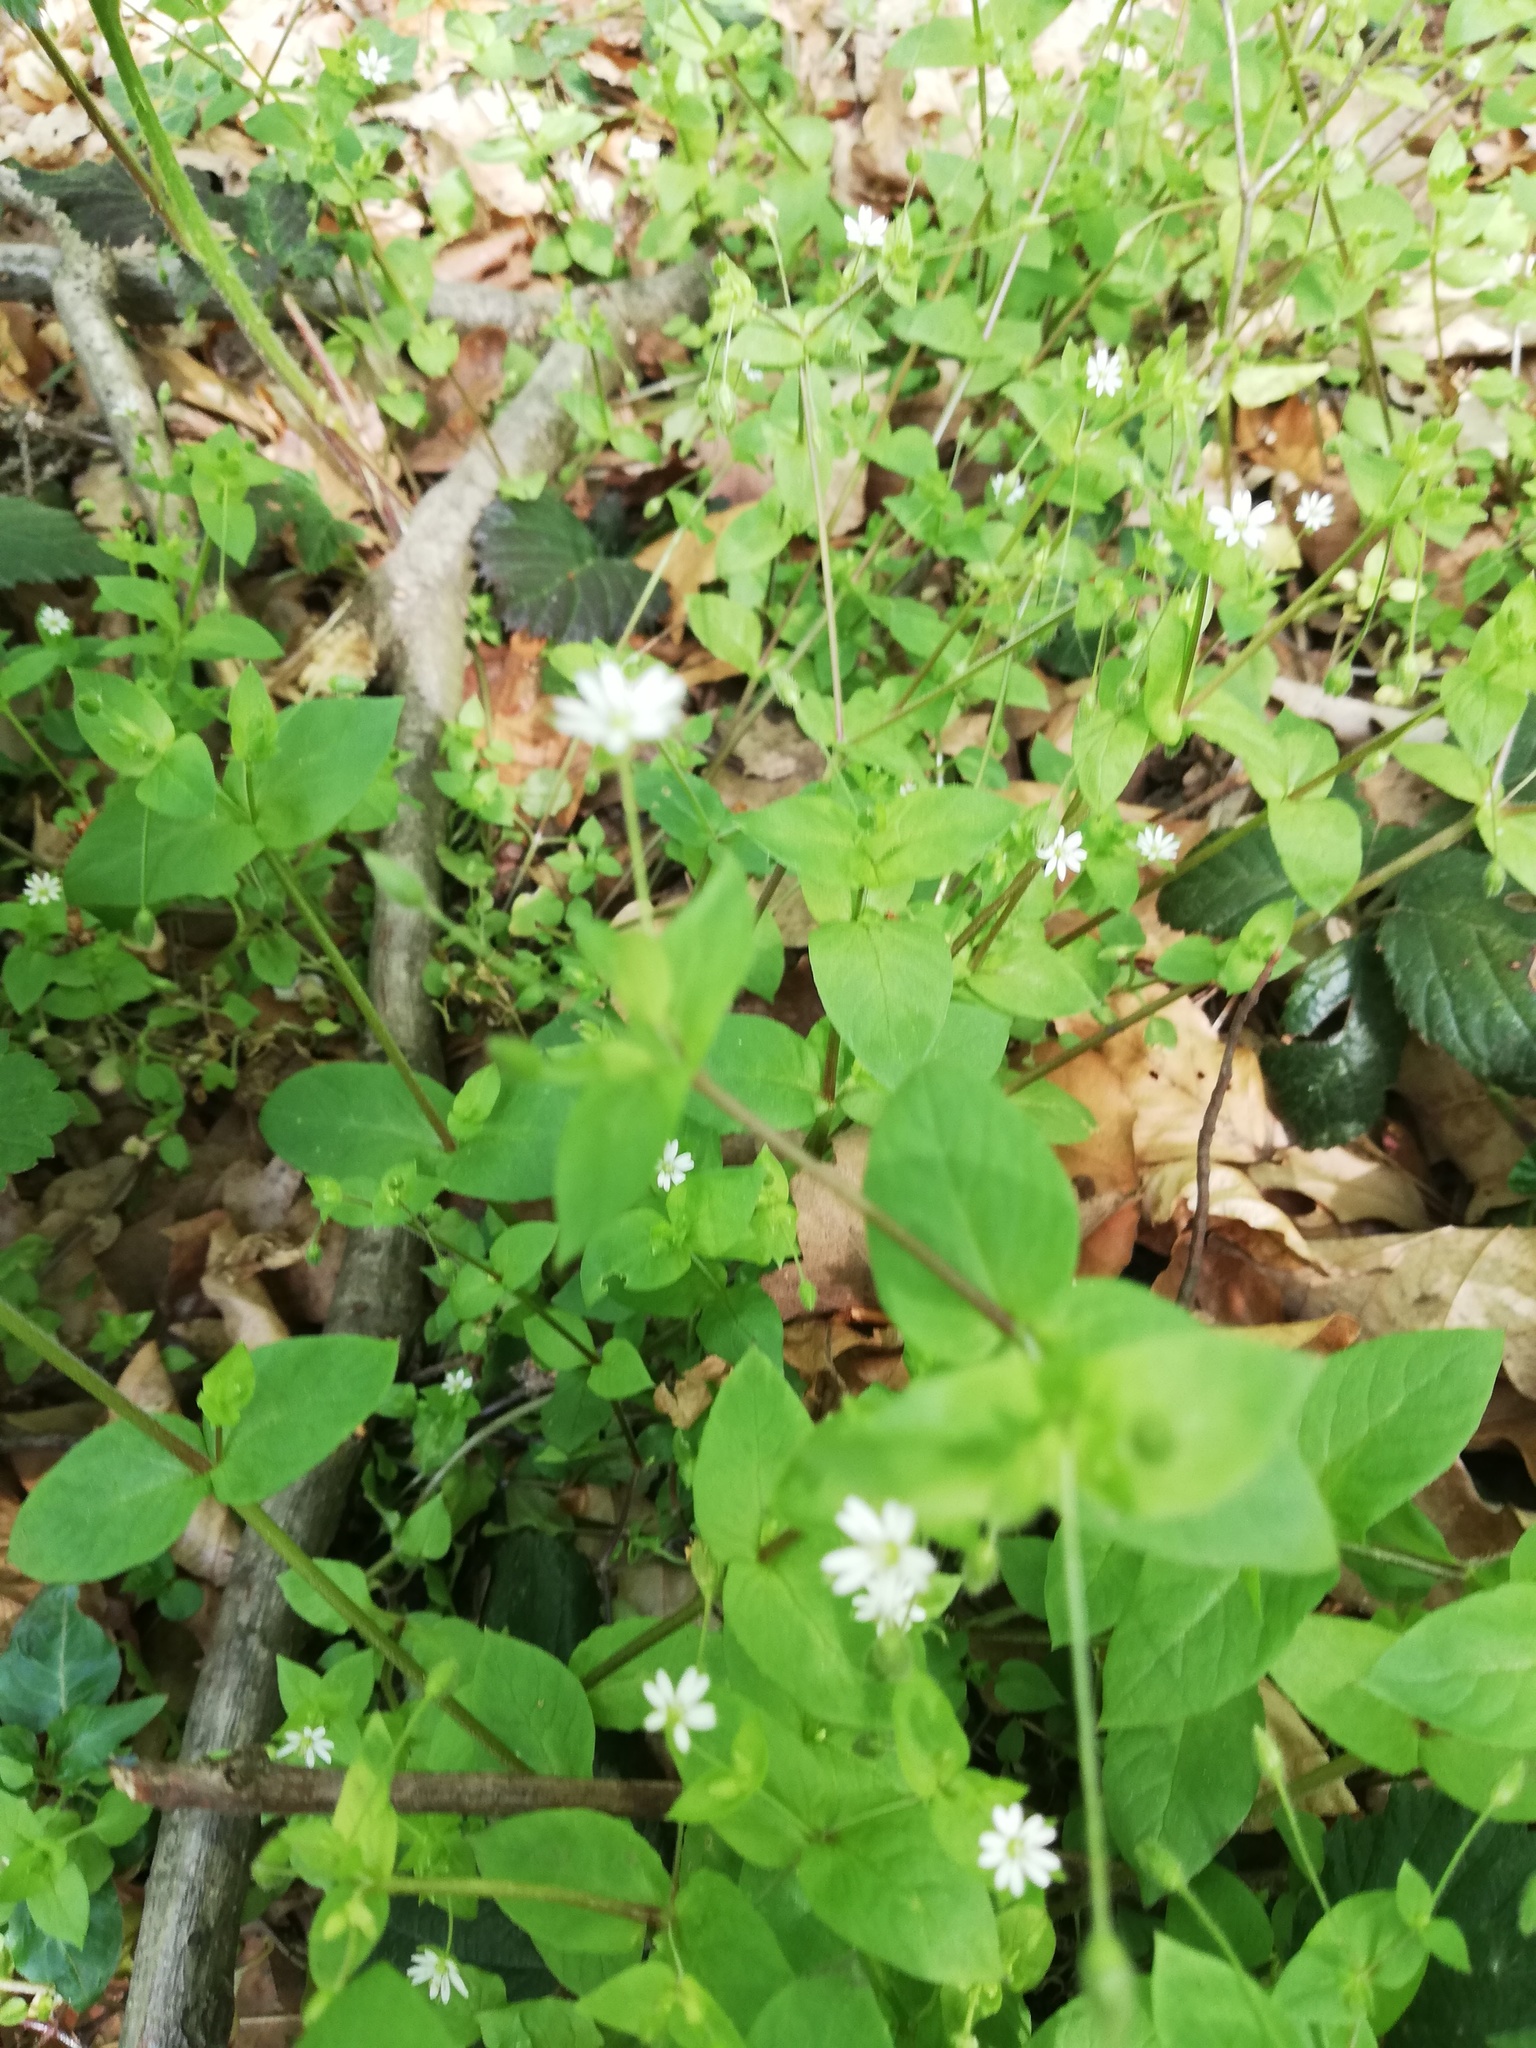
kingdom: Plantae
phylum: Tracheophyta
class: Magnoliopsida
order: Caryophyllales
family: Caryophyllaceae
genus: Stellaria
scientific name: Stellaria
